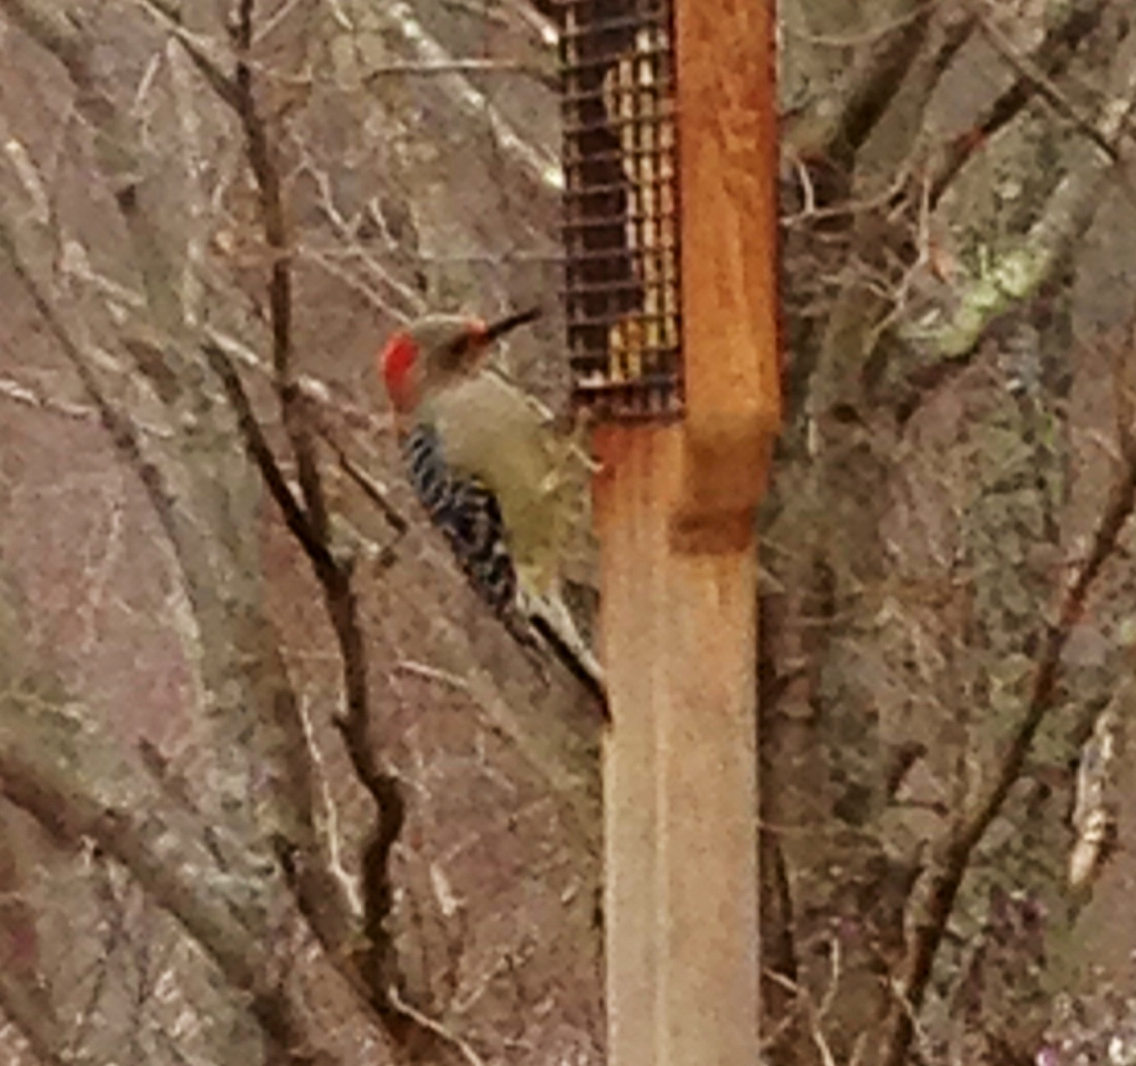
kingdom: Animalia
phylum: Chordata
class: Aves
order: Piciformes
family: Picidae
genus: Melanerpes
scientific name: Melanerpes carolinus
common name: Red-bellied woodpecker
